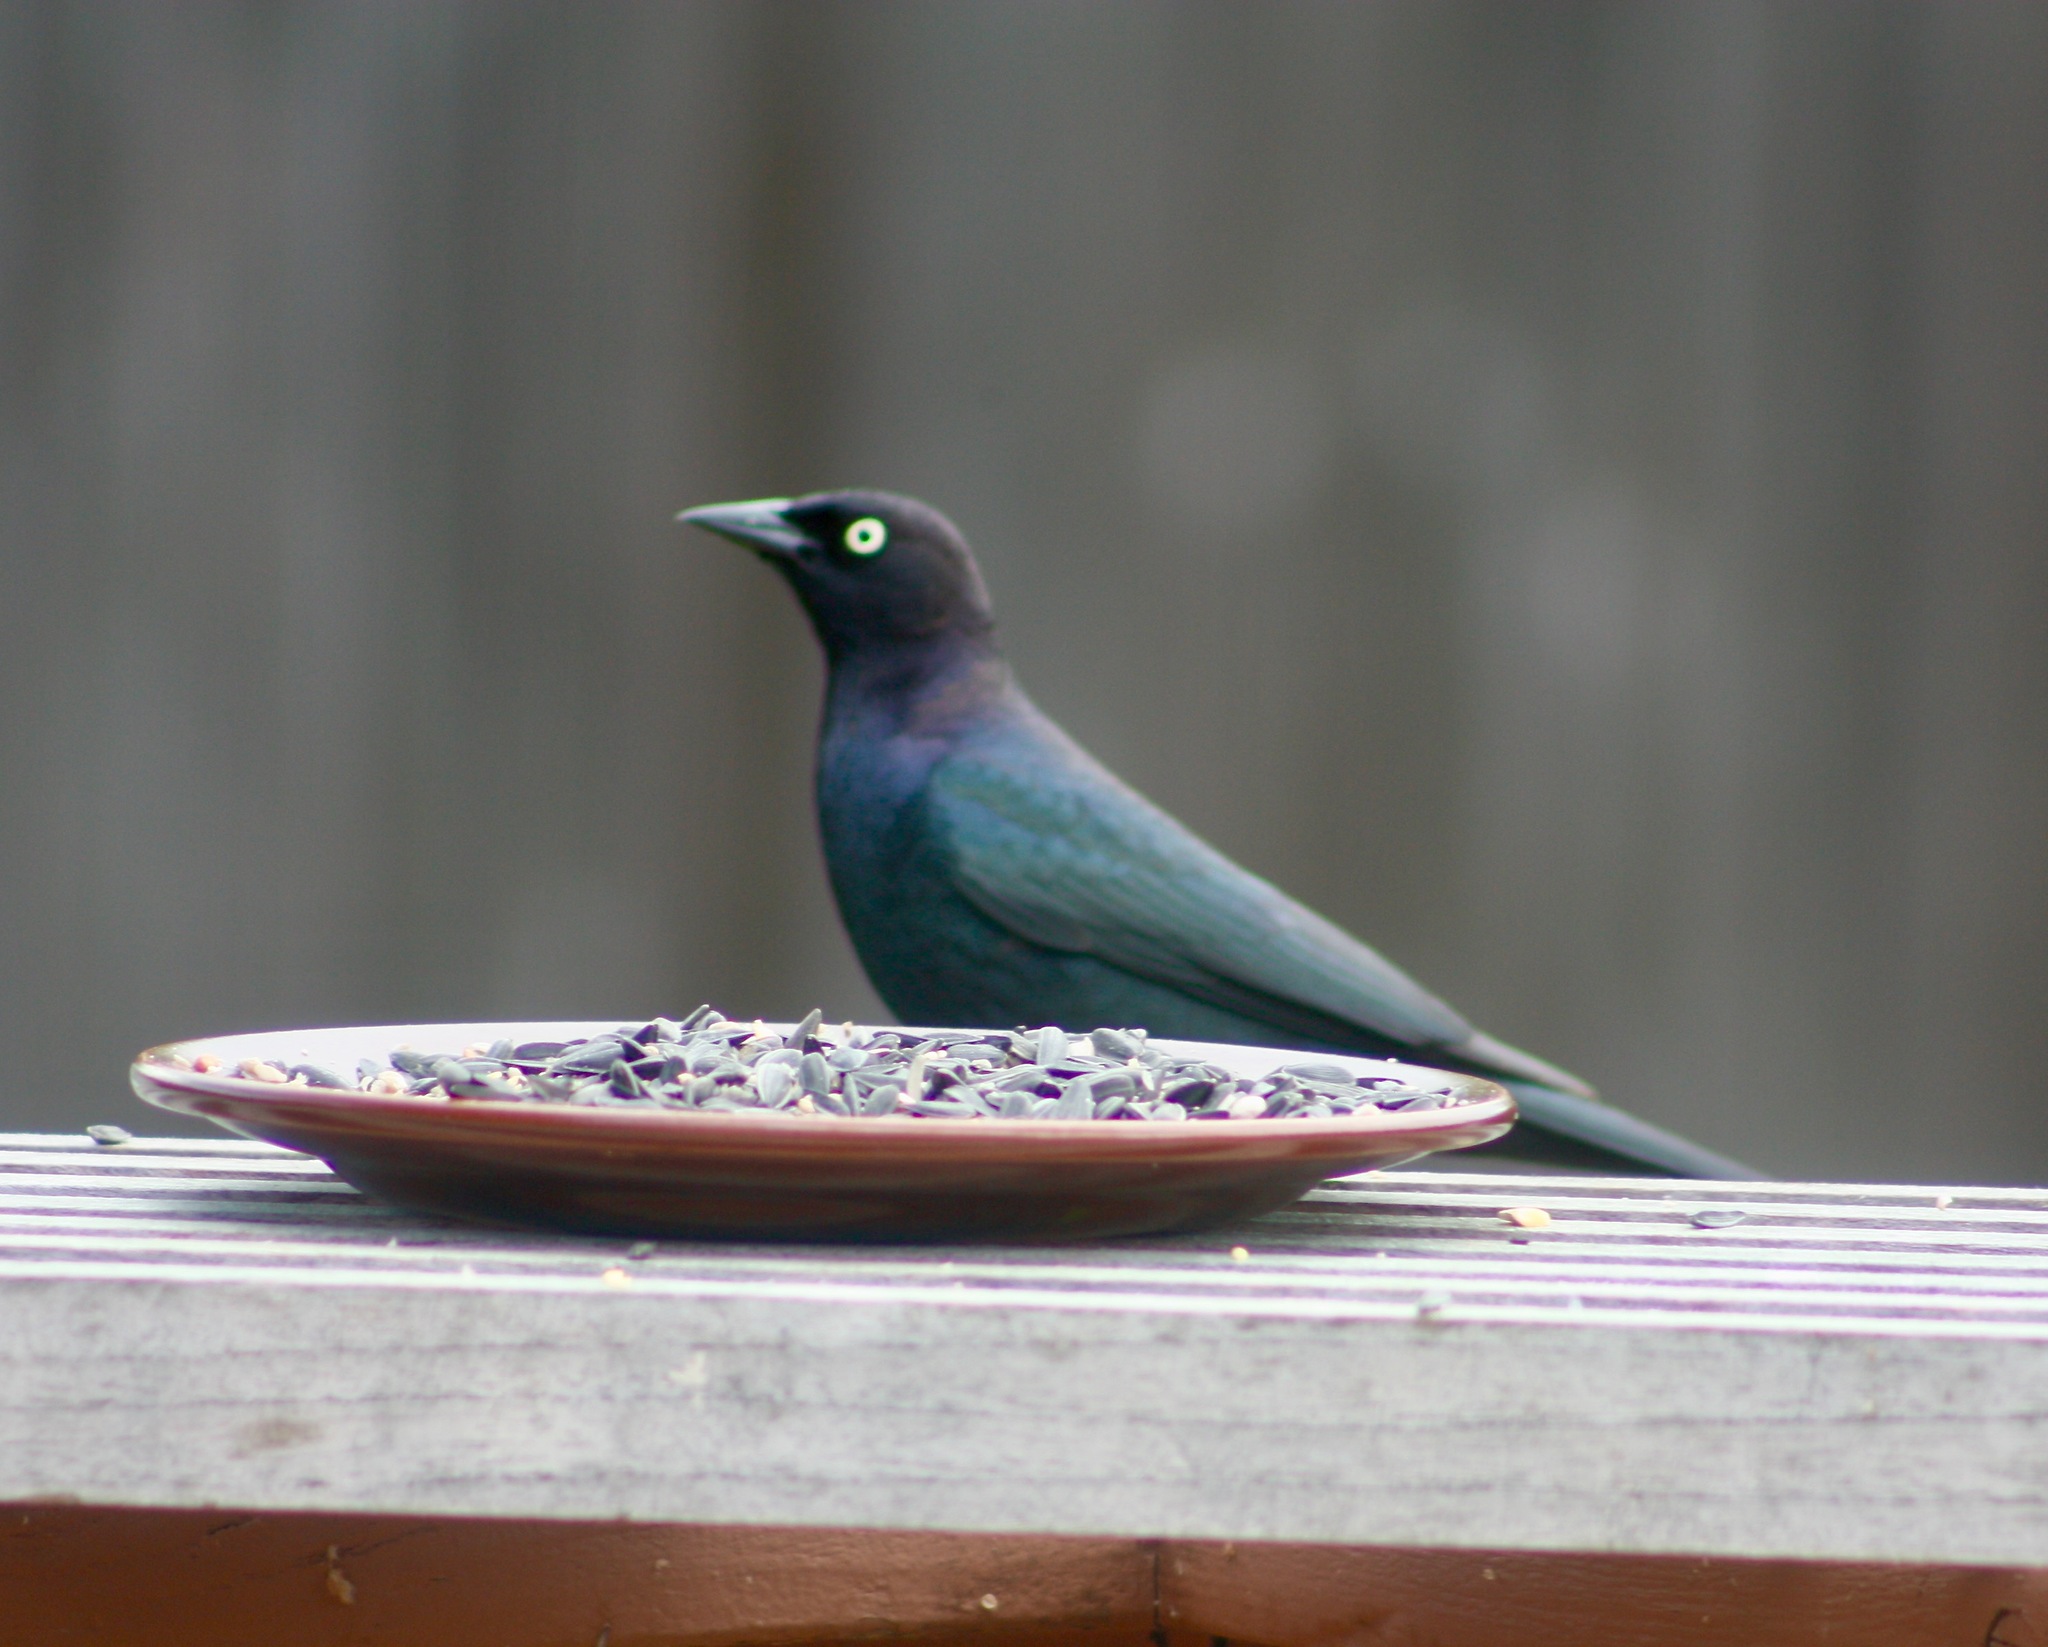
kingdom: Animalia
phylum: Chordata
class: Aves
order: Passeriformes
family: Icteridae
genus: Euphagus
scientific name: Euphagus cyanocephalus
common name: Brewer's blackbird
